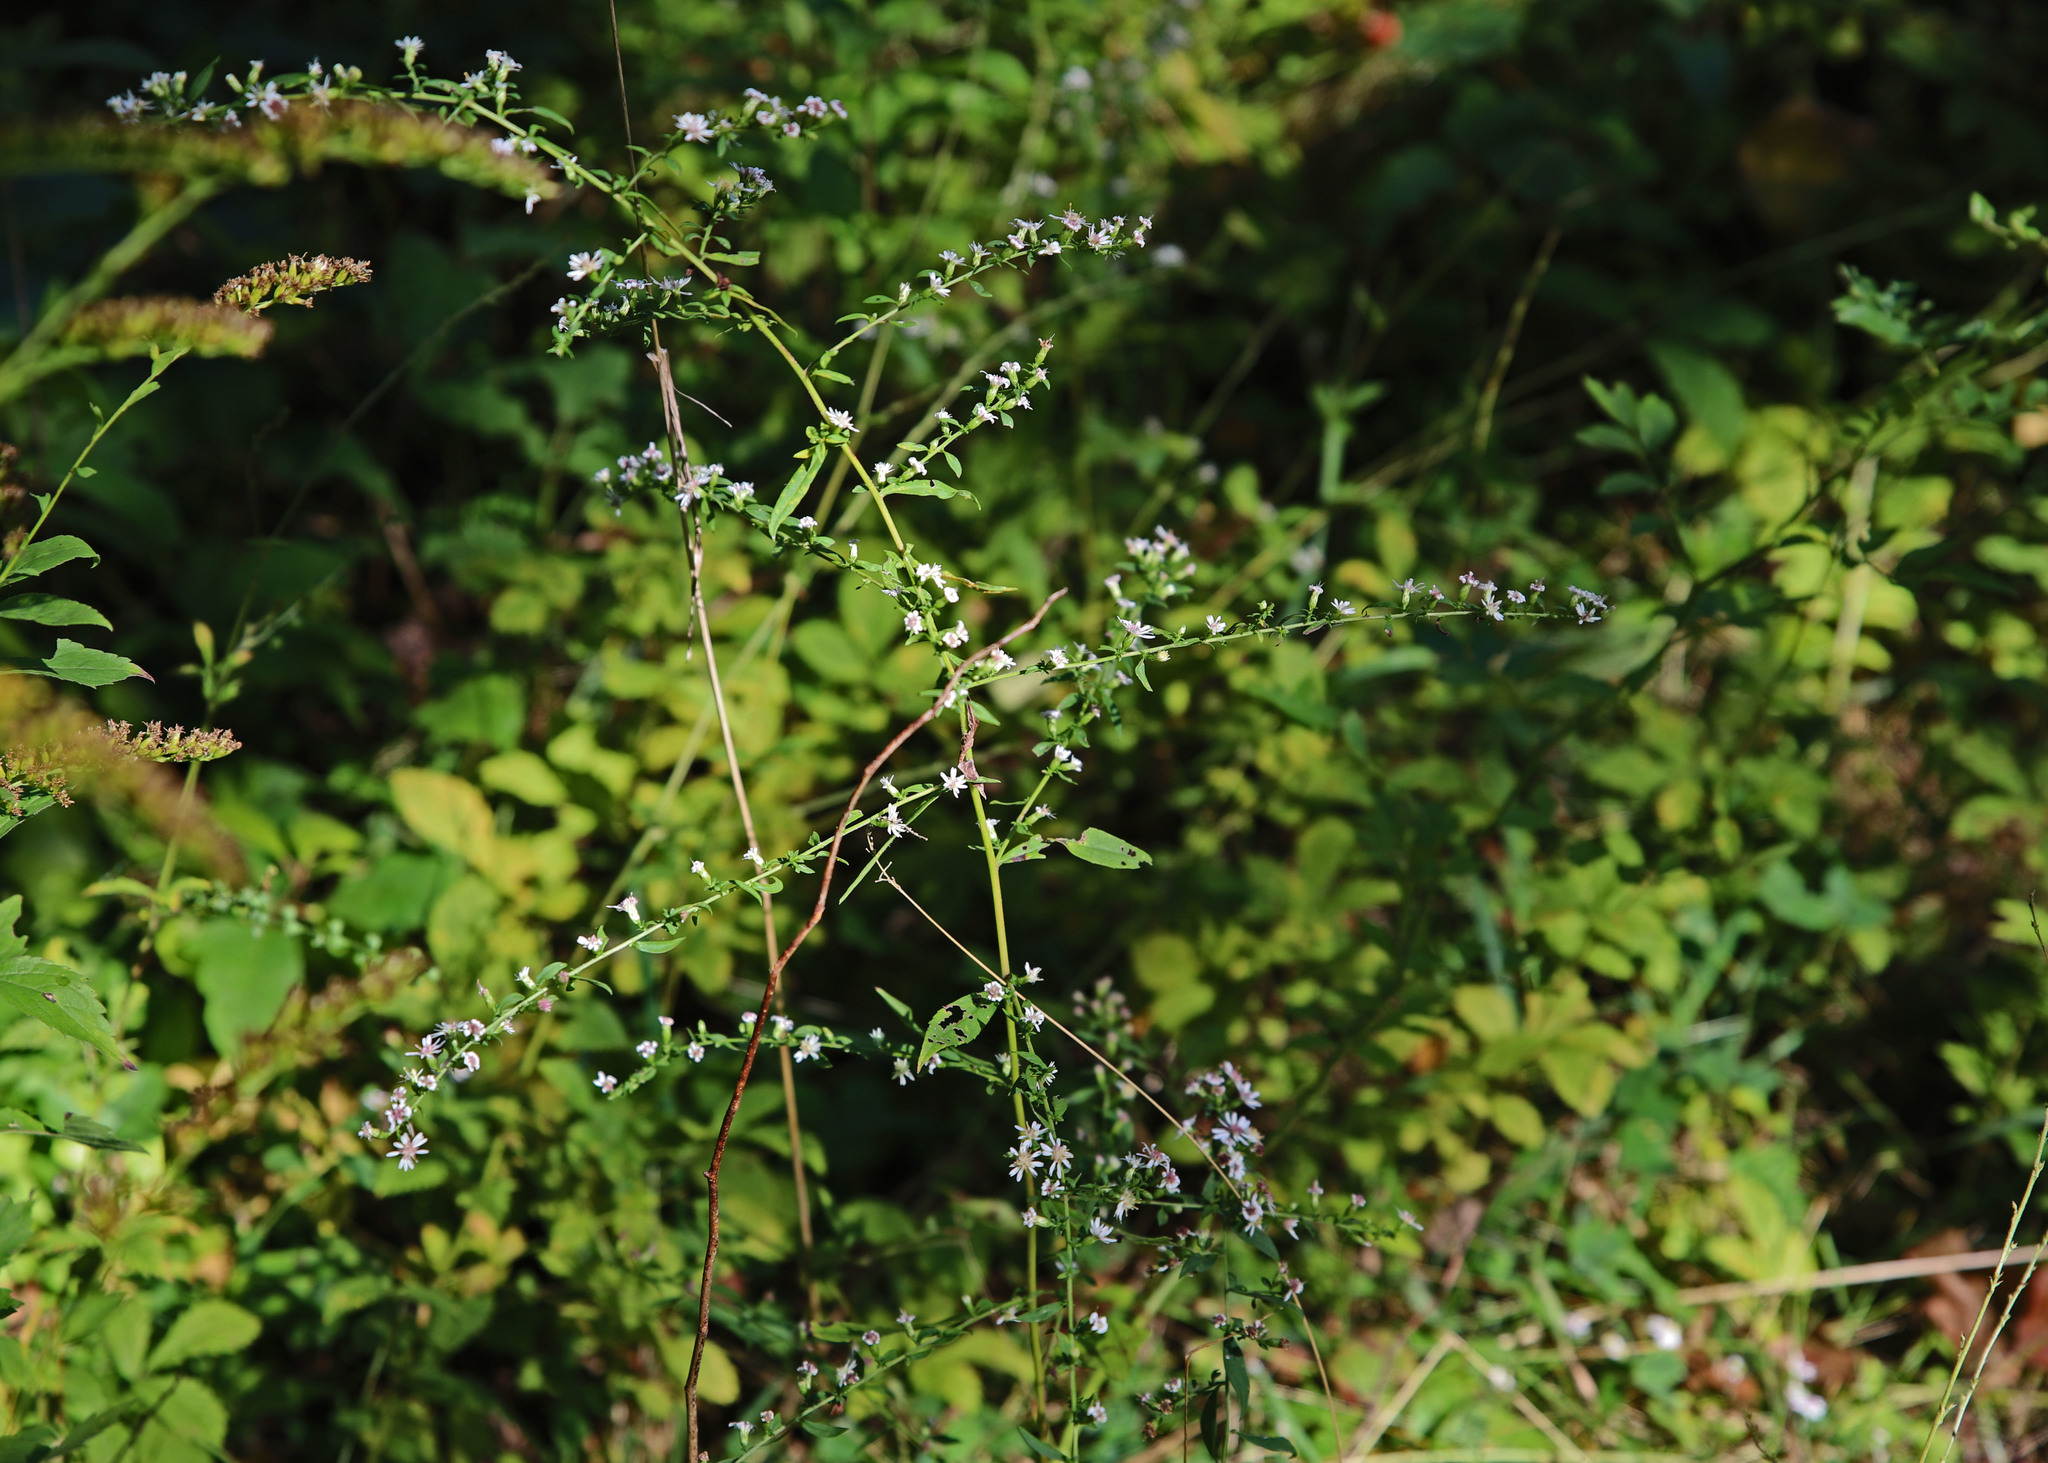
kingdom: Plantae
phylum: Tracheophyta
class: Magnoliopsida
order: Asterales
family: Asteraceae
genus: Symphyotrichum
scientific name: Symphyotrichum lateriflorum
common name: Calico aster
